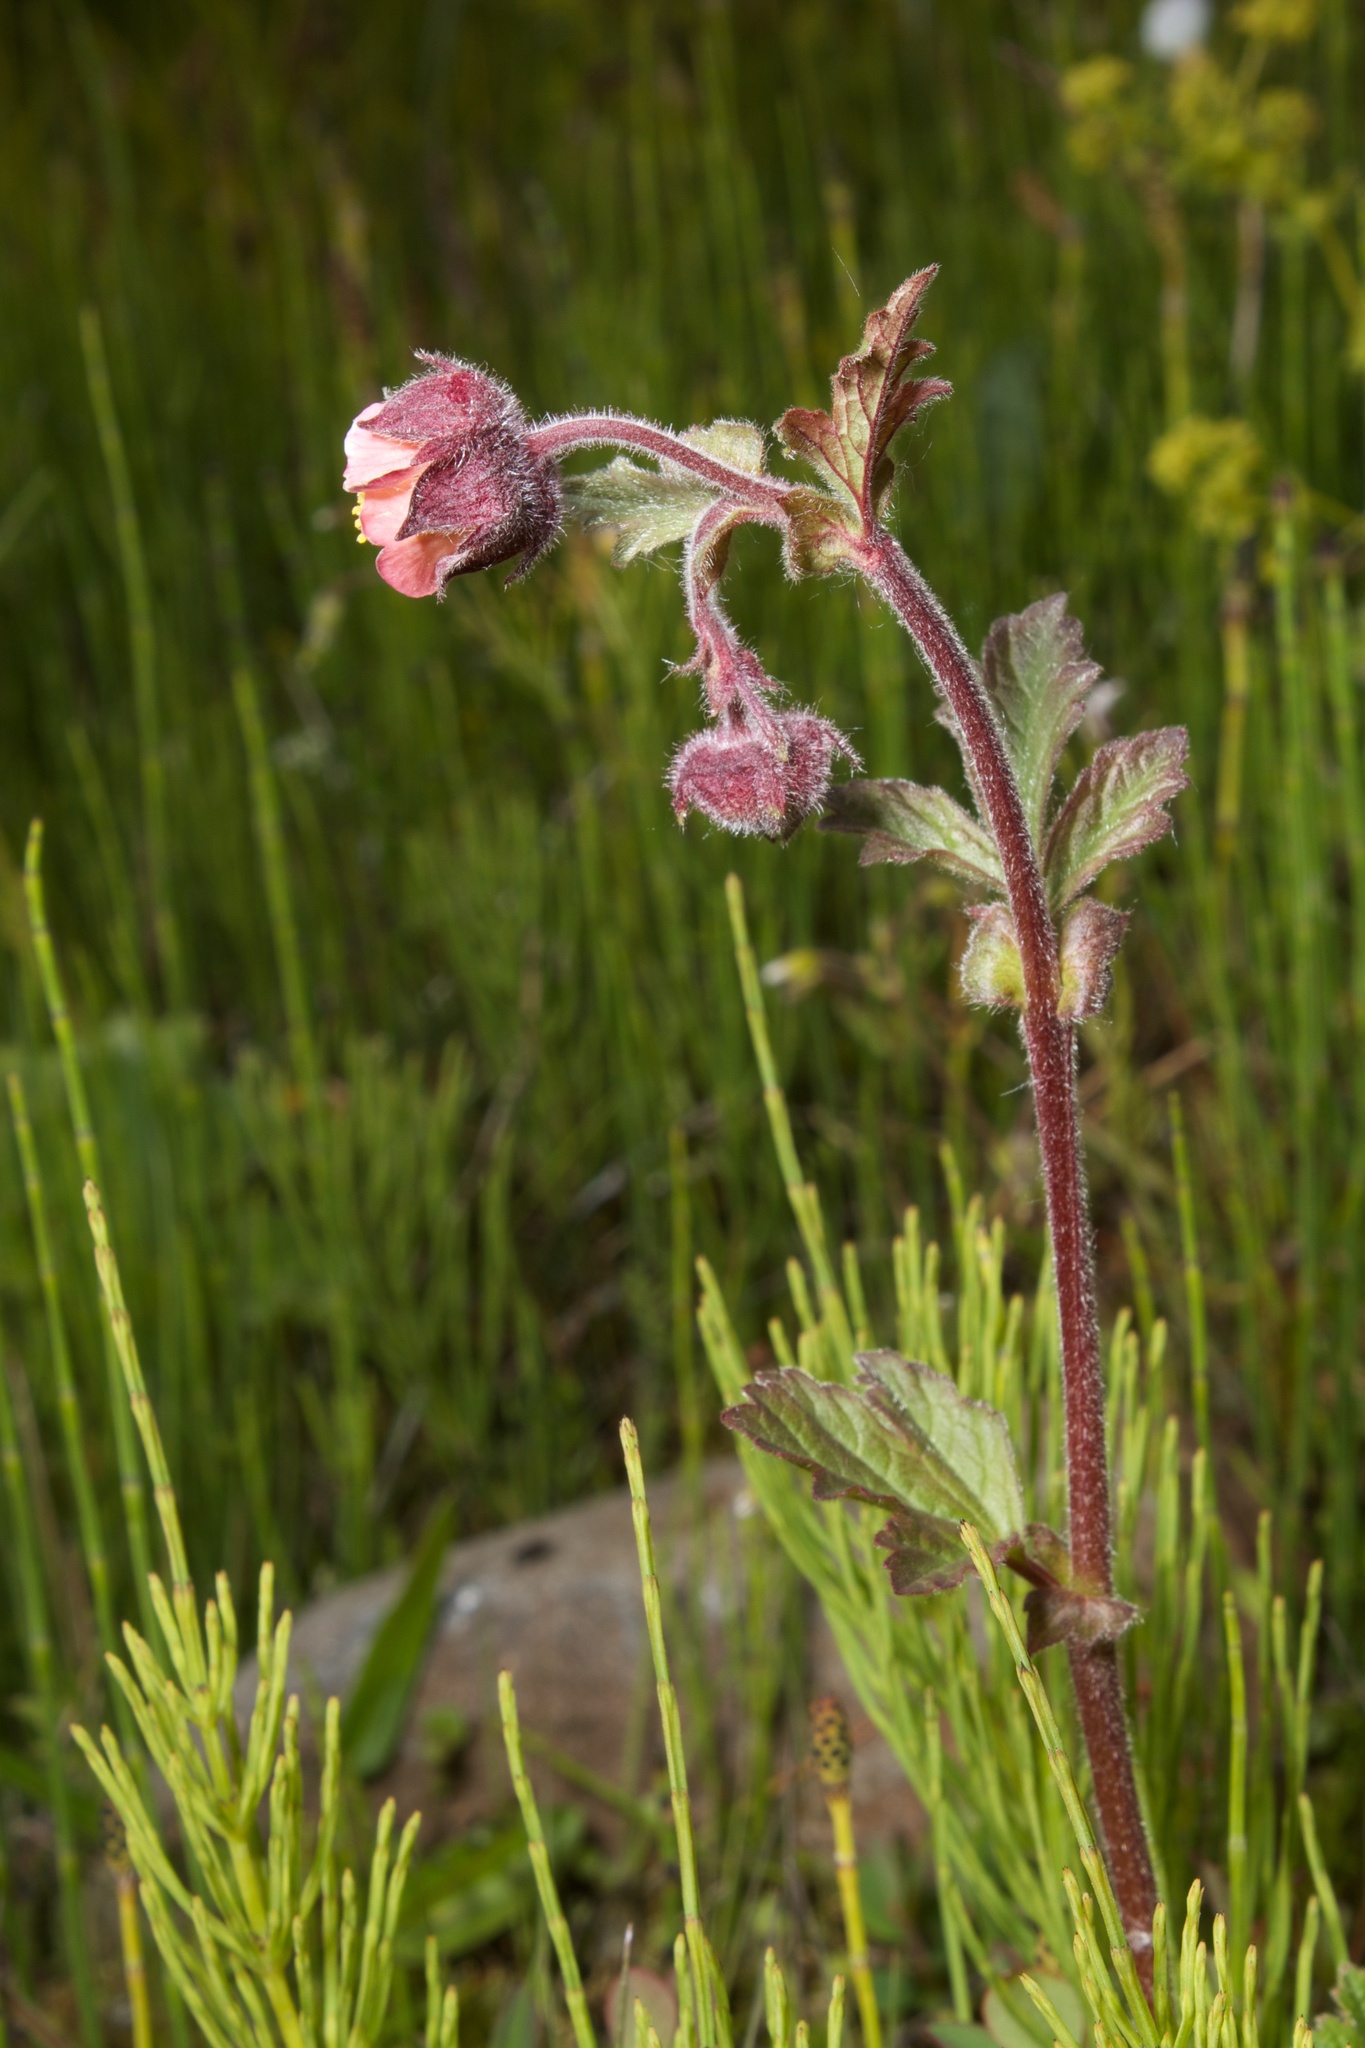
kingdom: Plantae
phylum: Tracheophyta
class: Magnoliopsida
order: Rosales
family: Rosaceae
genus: Geum
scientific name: Geum rivale
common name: Water avens
